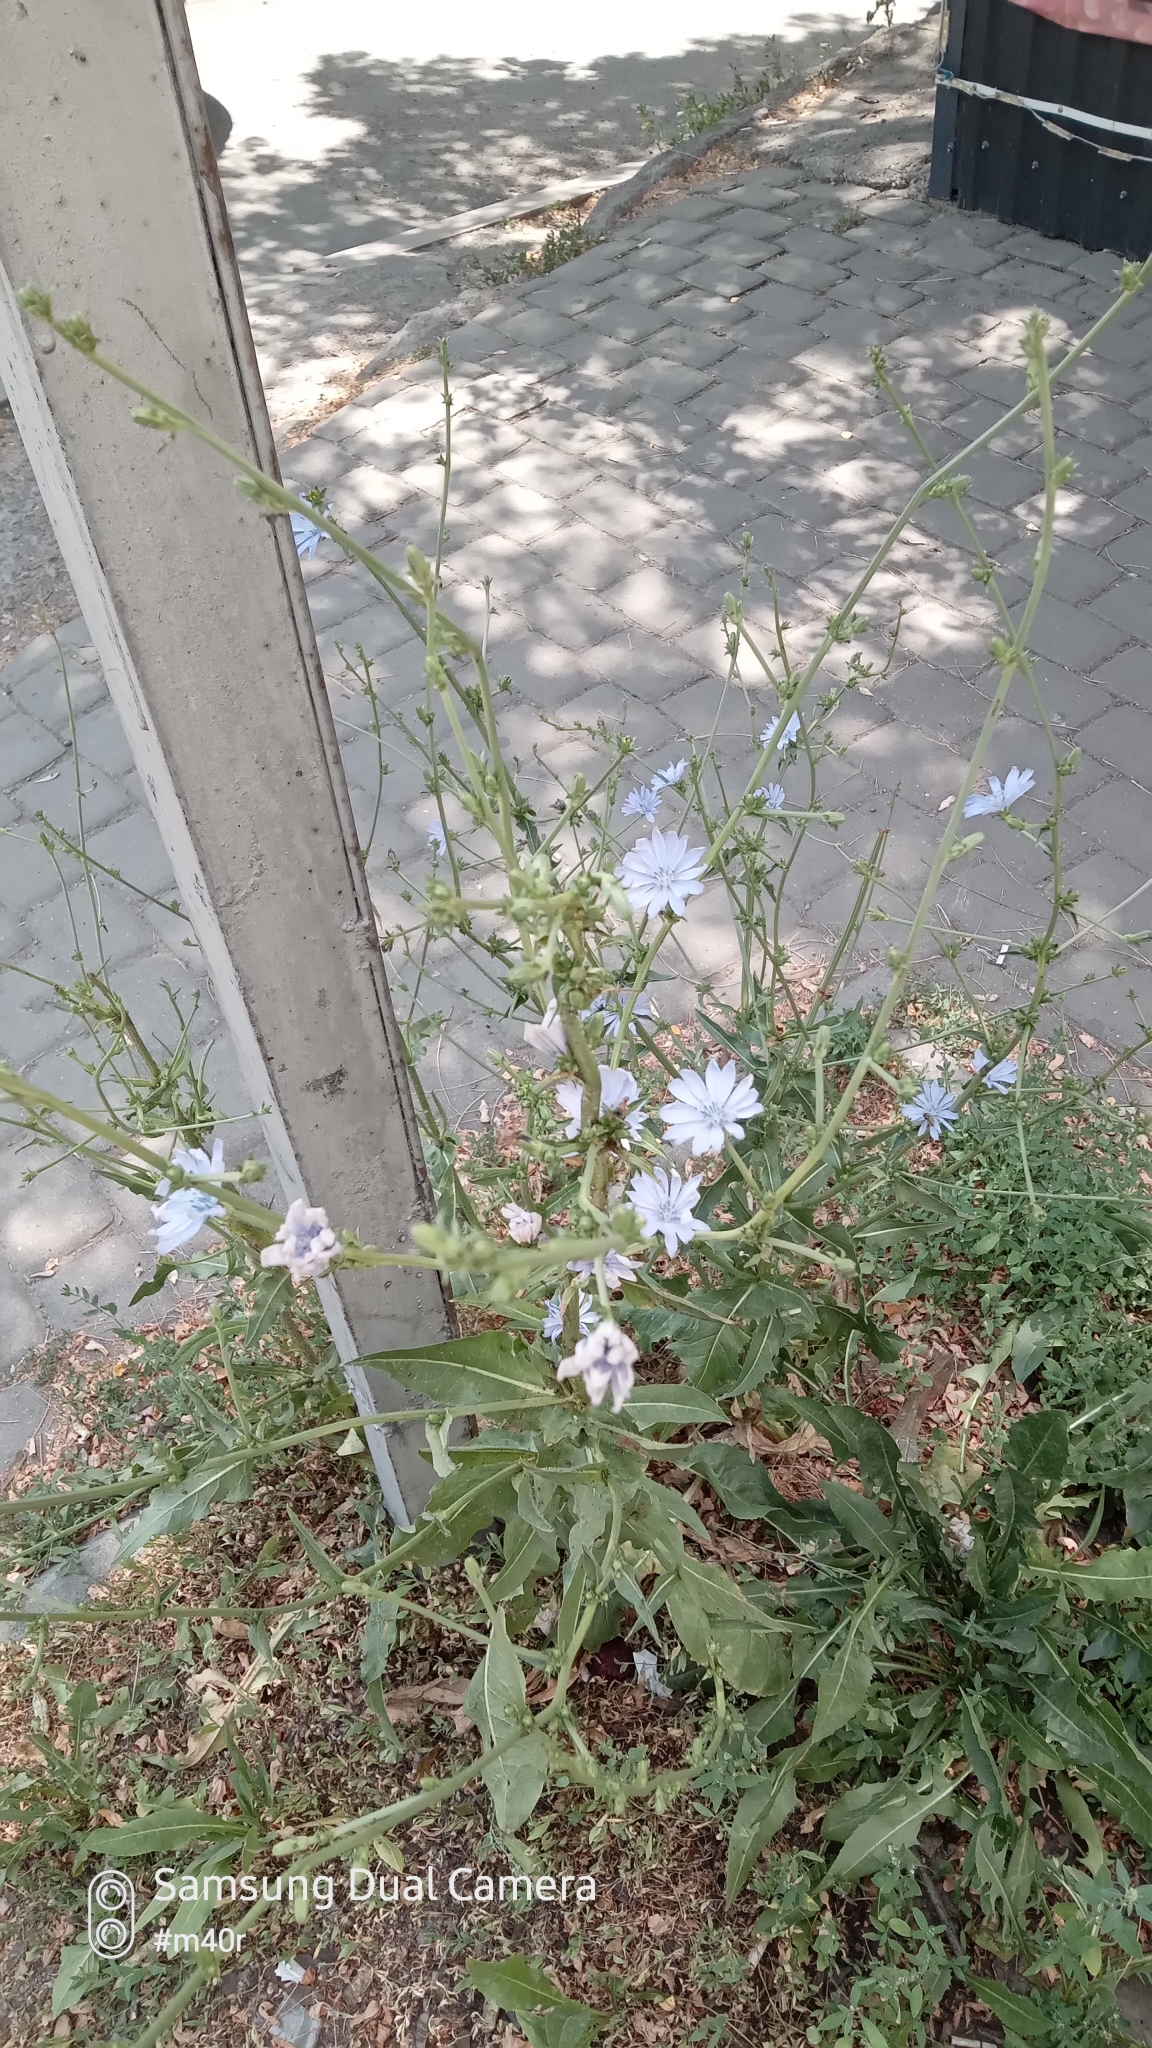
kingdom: Plantae
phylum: Tracheophyta
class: Magnoliopsida
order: Asterales
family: Asteraceae
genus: Cichorium
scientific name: Cichorium intybus
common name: Chicory
